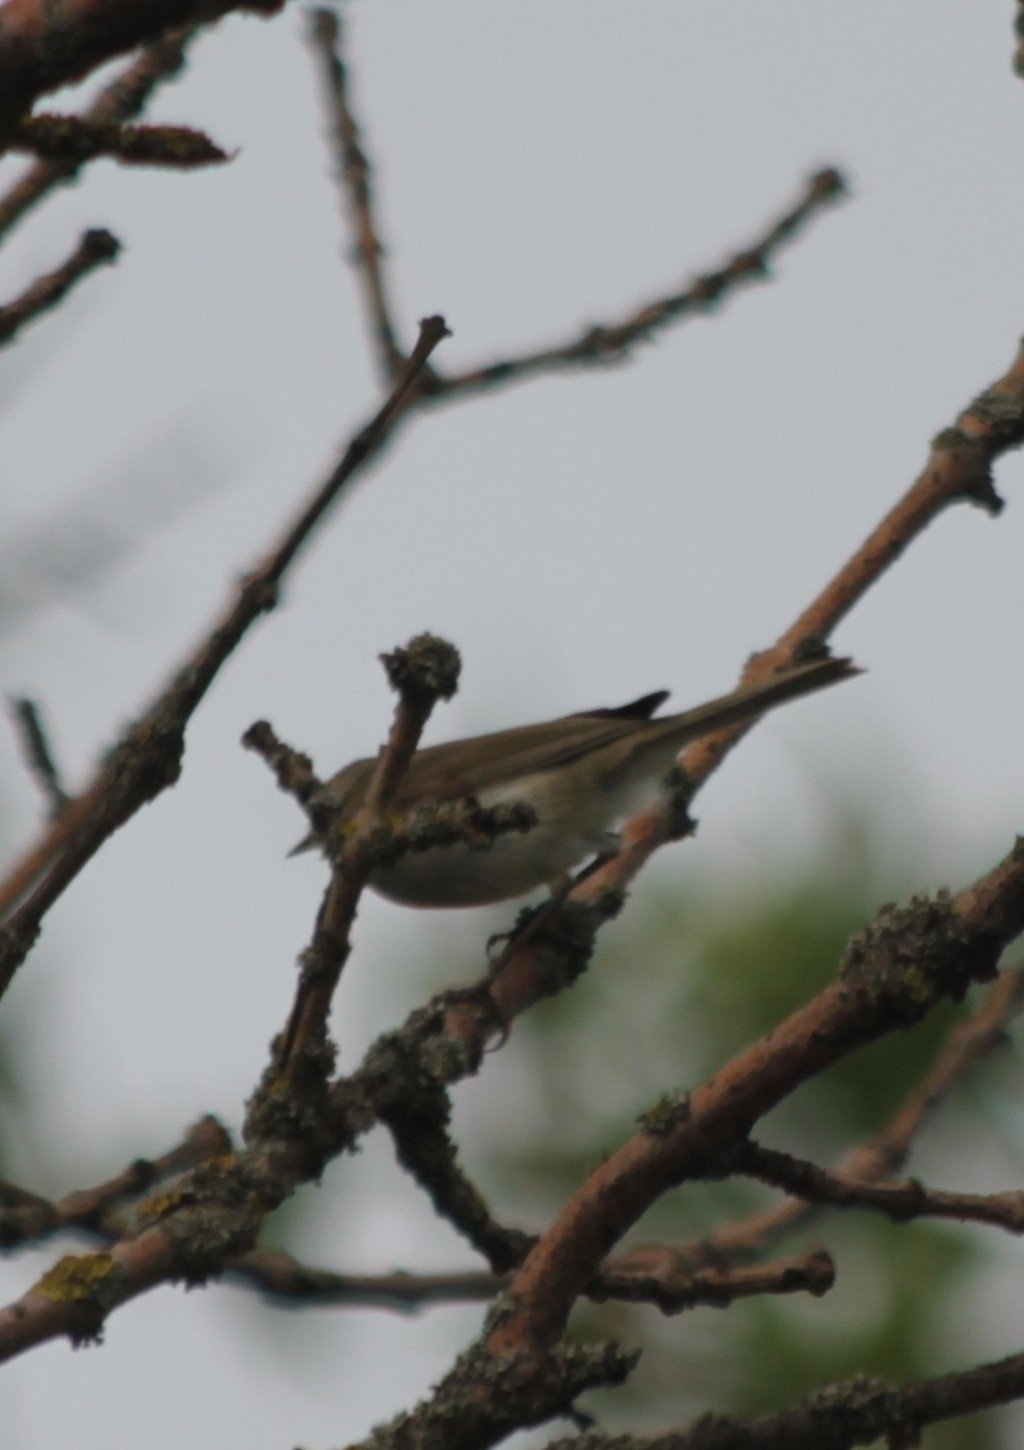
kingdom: Animalia
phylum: Chordata
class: Aves
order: Passeriformes
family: Phylloscopidae
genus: Phylloscopus
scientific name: Phylloscopus collybita
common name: Common chiffchaff
